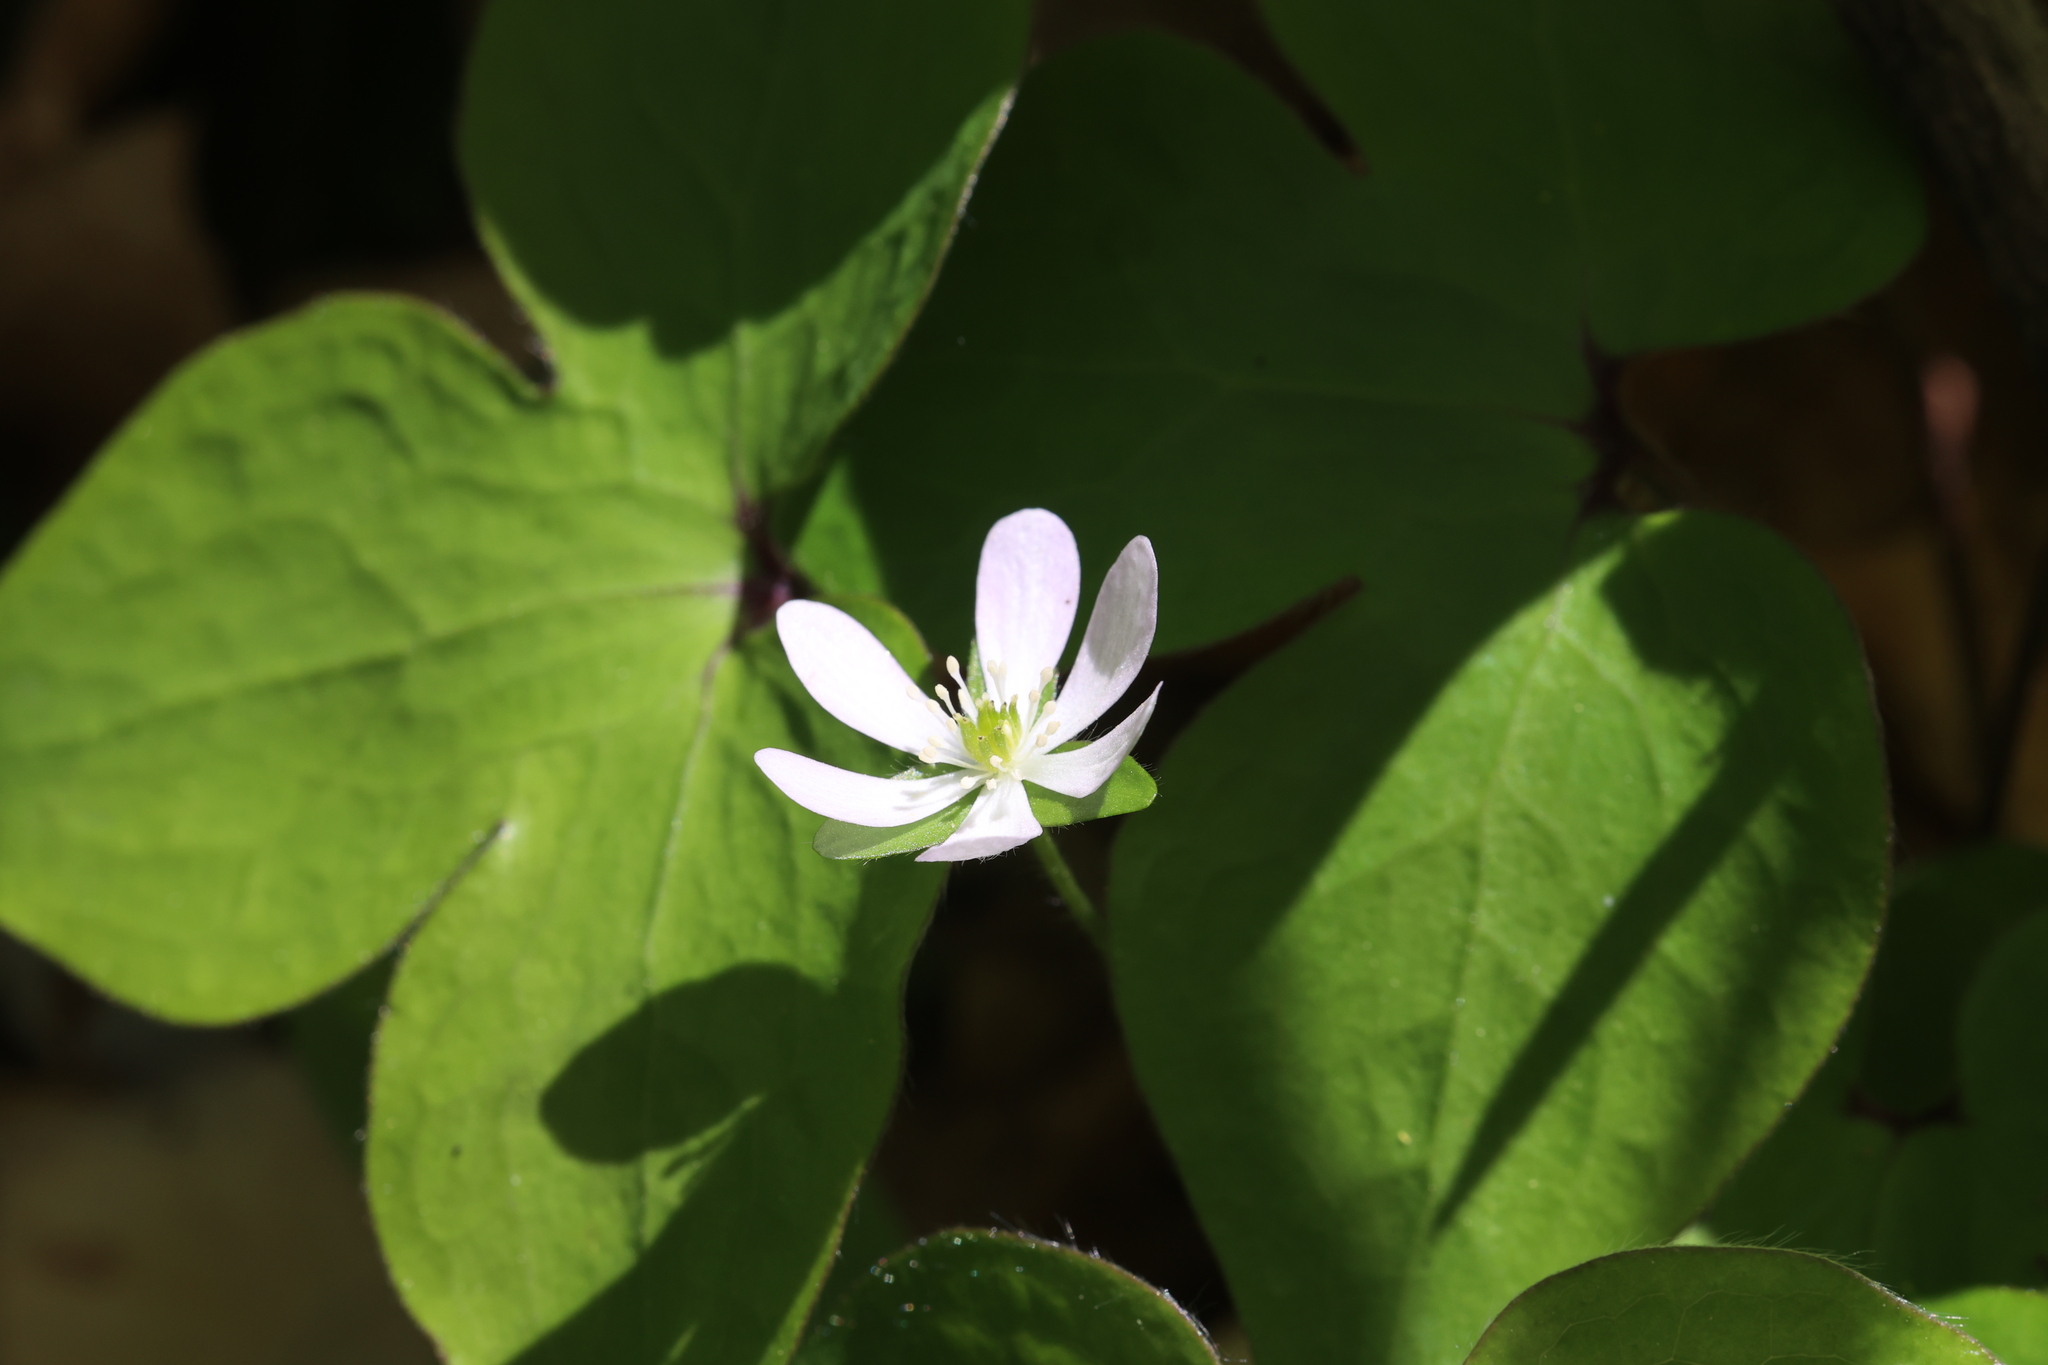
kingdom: Plantae
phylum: Tracheophyta
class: Magnoliopsida
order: Ranunculales
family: Ranunculaceae
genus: Hepatica
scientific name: Hepatica acutiloba
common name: Sharp-lobed hepatica
